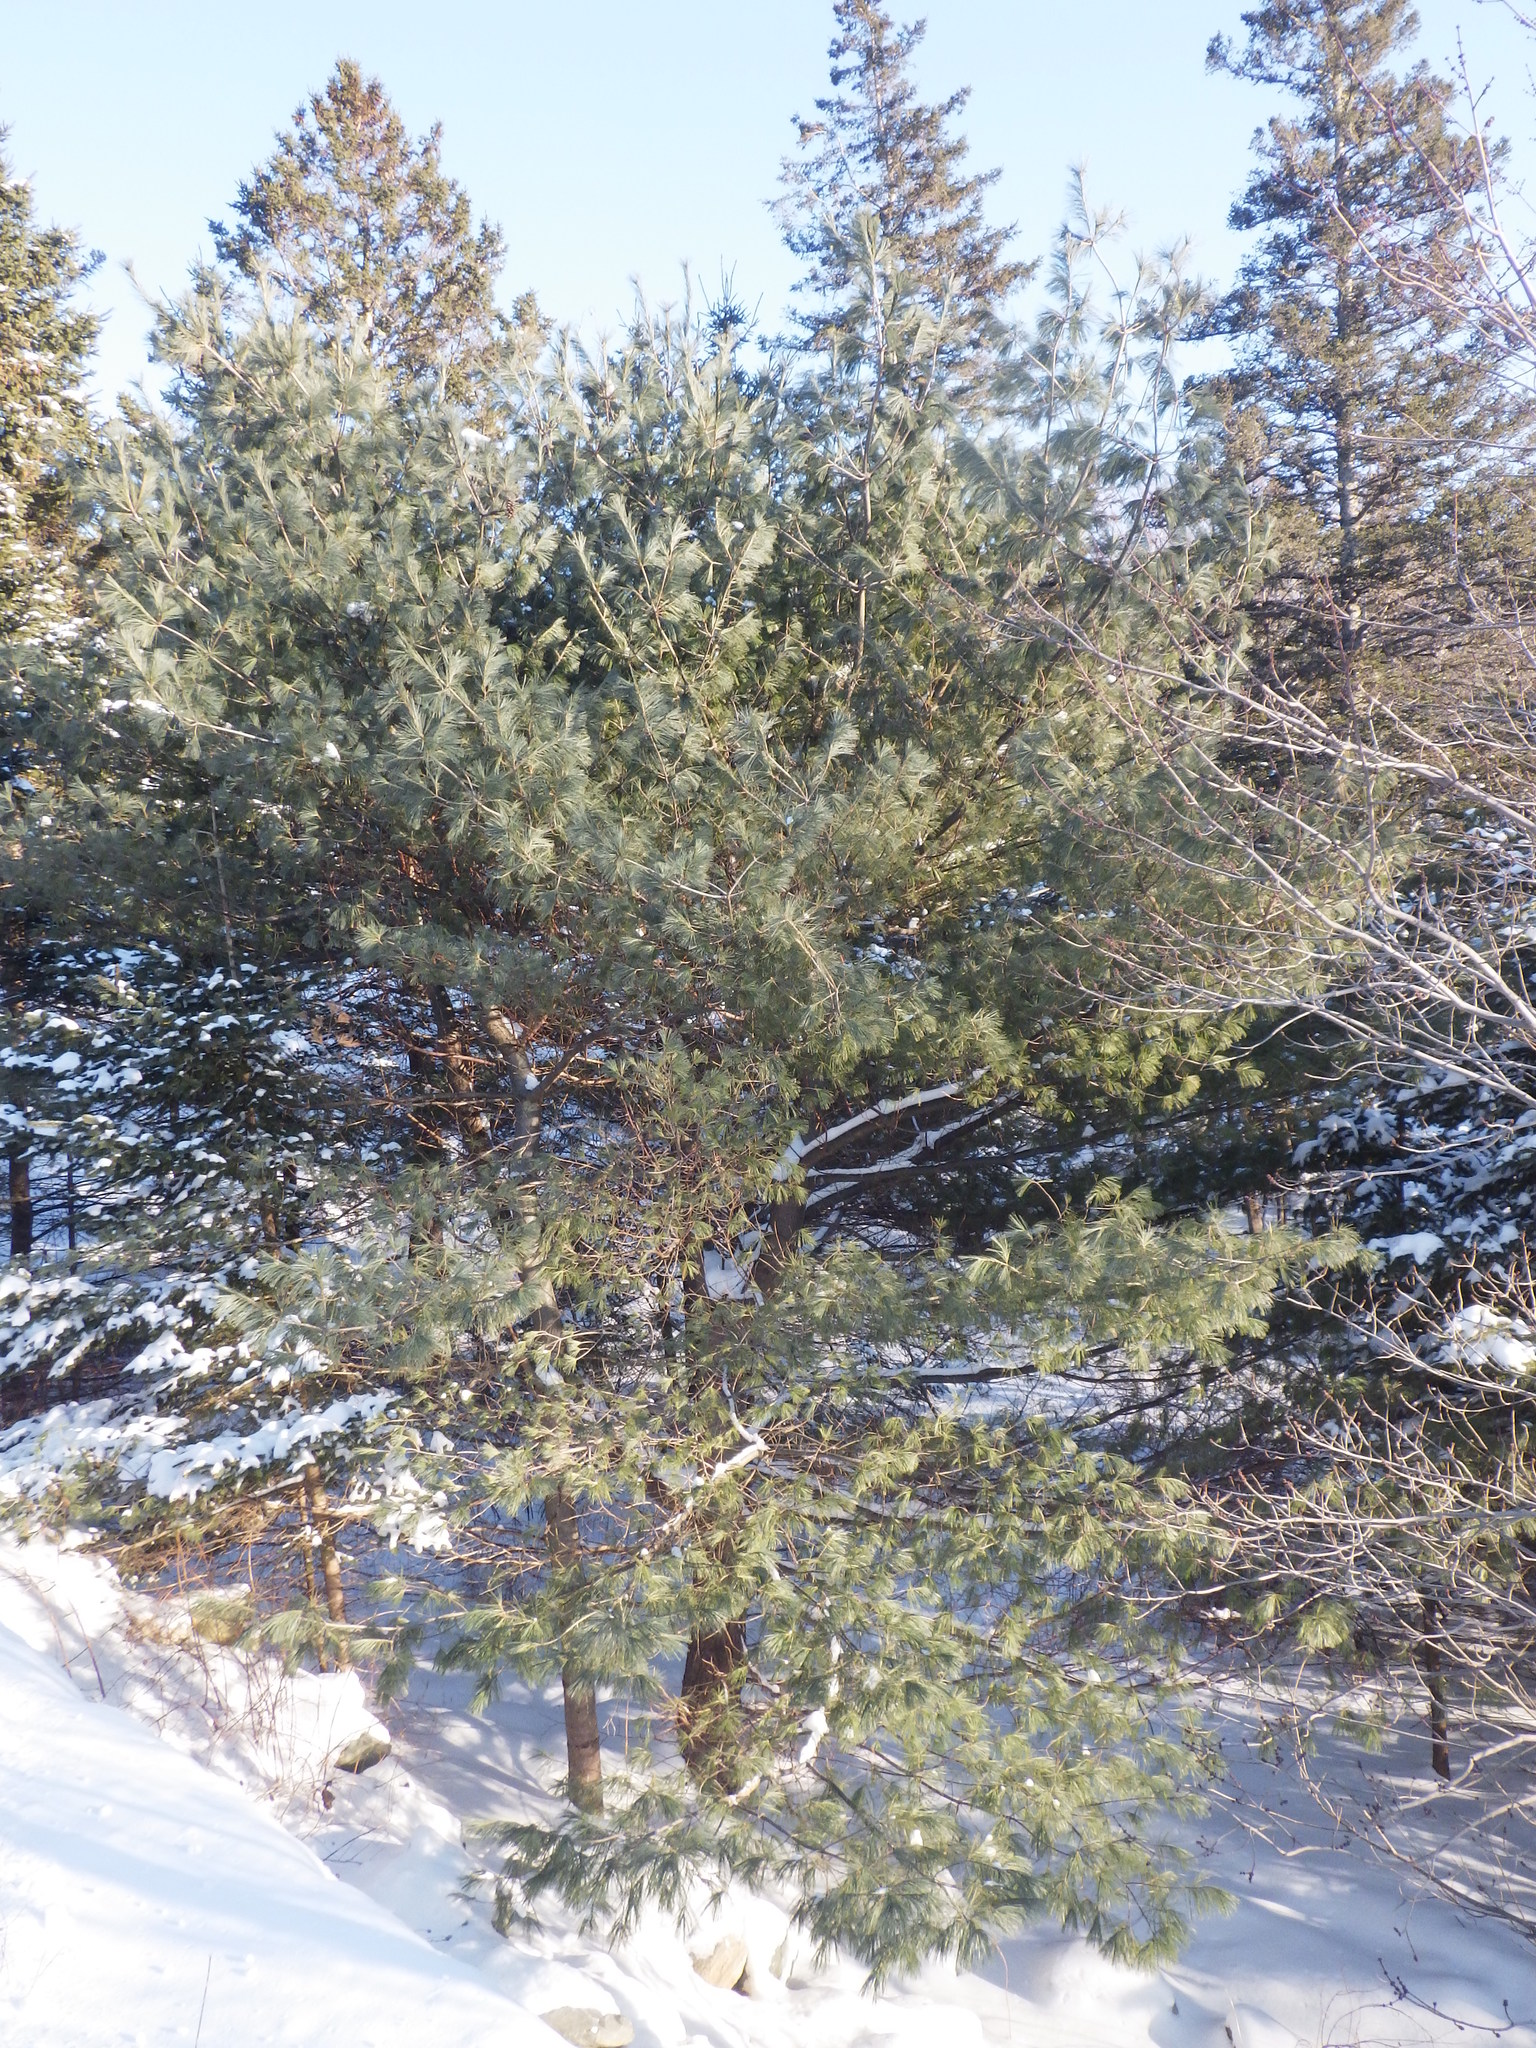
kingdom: Plantae
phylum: Tracheophyta
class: Pinopsida
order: Pinales
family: Pinaceae
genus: Pinus
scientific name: Pinus strobus
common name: Weymouth pine
